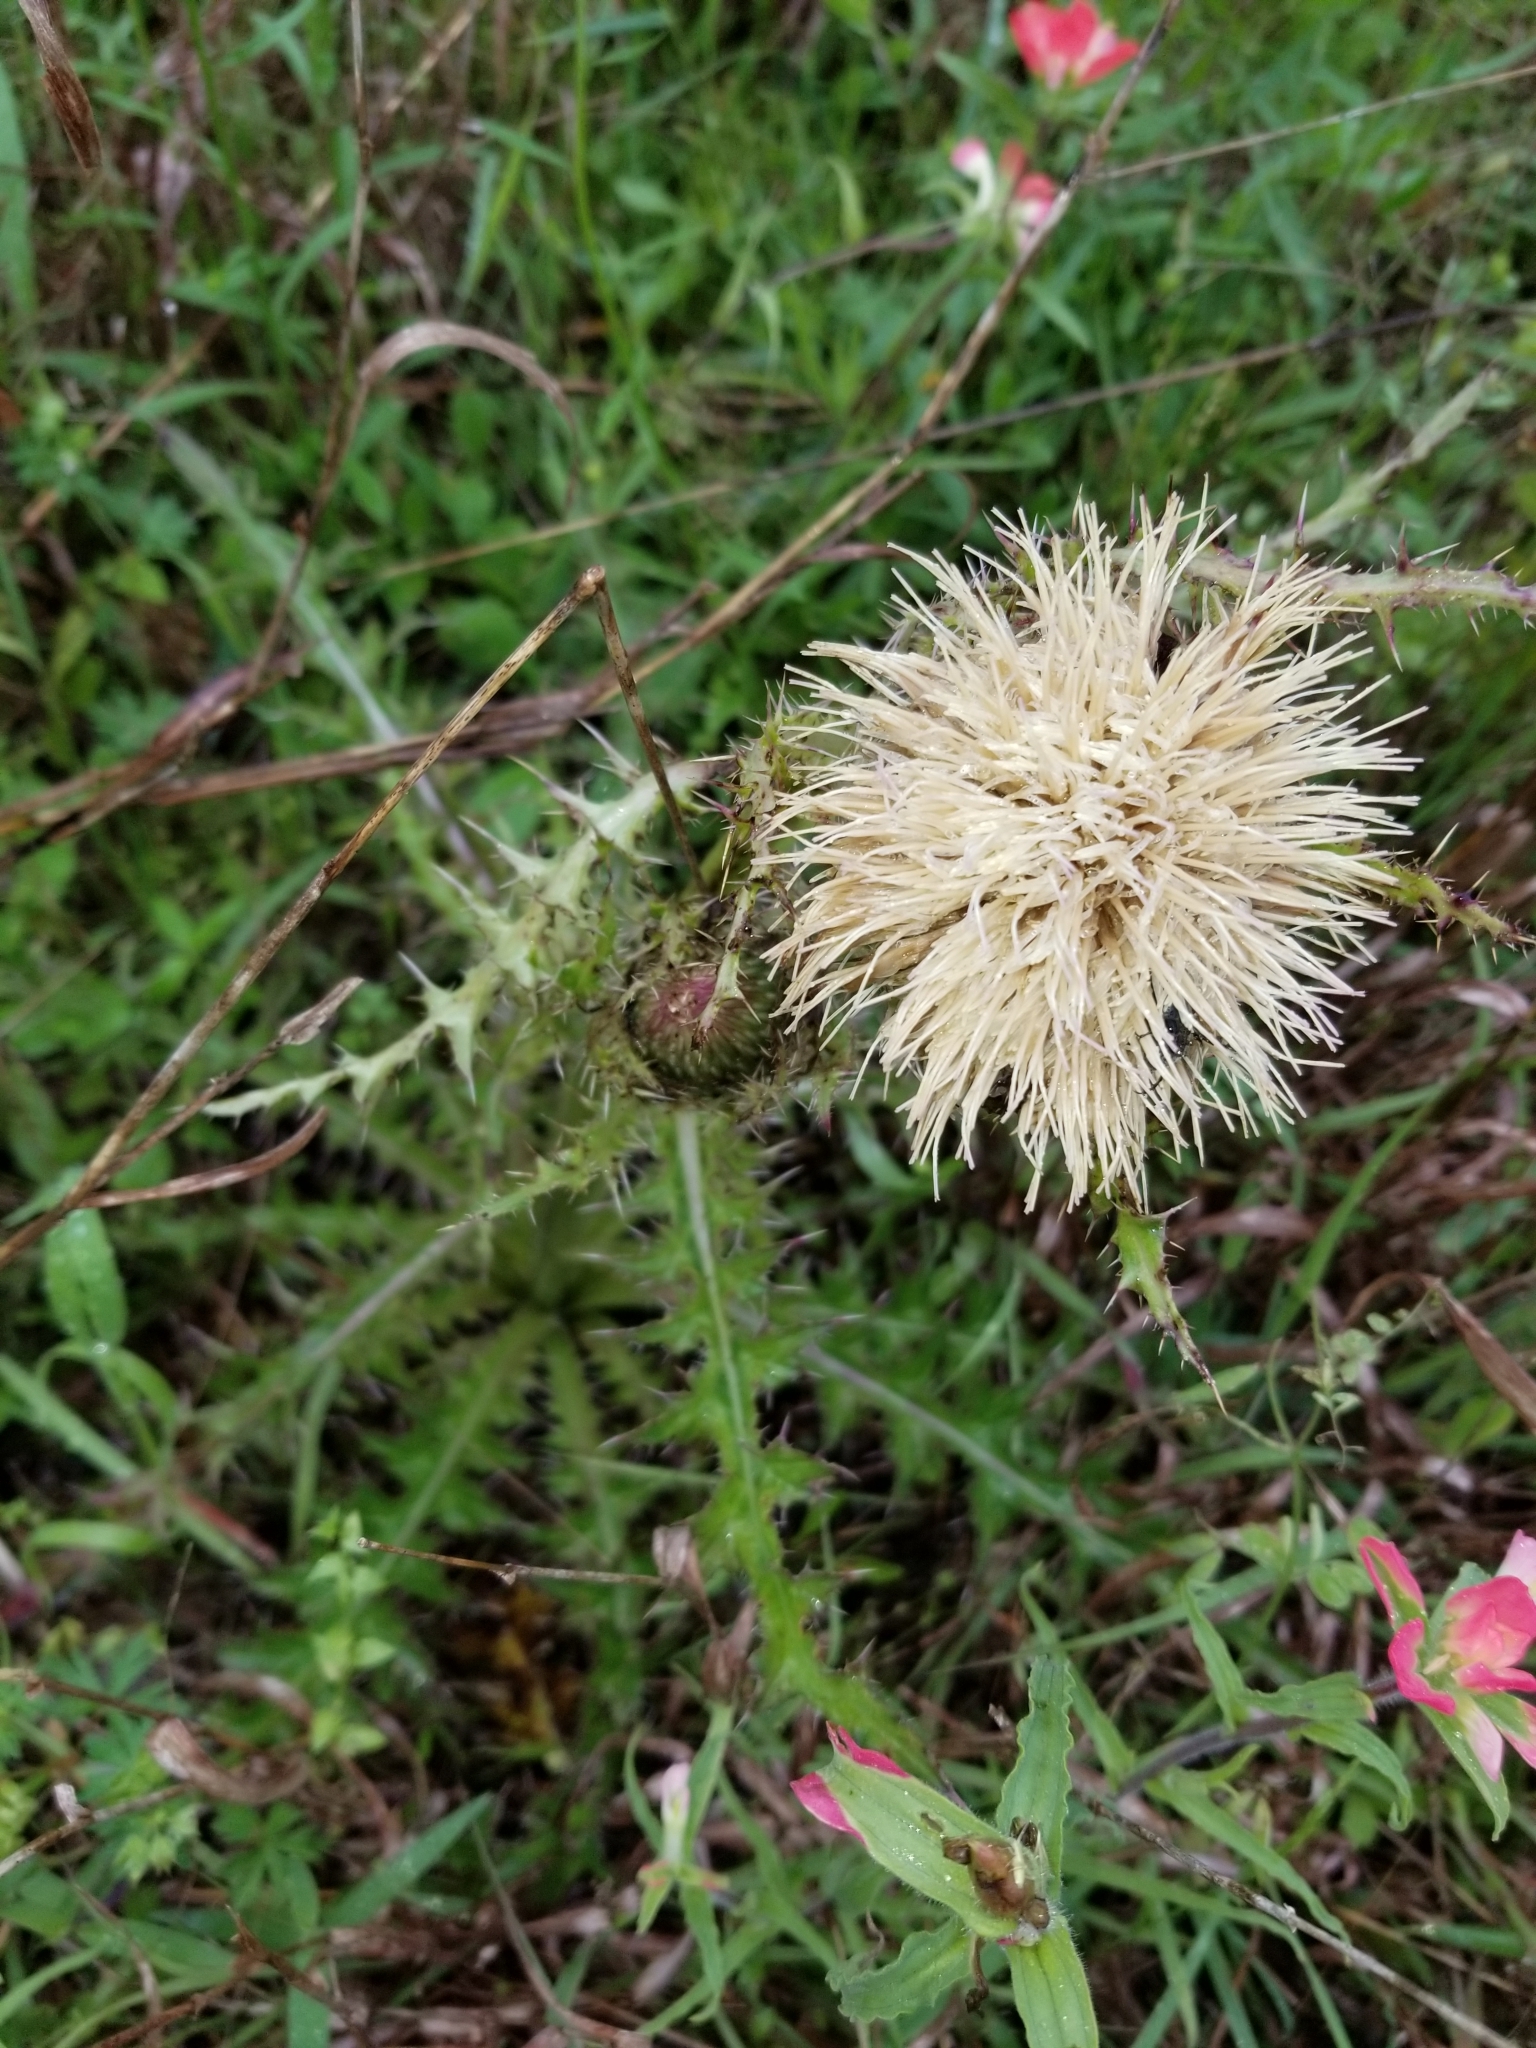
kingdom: Plantae
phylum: Tracheophyta
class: Magnoliopsida
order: Asterales
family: Asteraceae
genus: Cirsium
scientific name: Cirsium horridulum
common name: Bristly thistle
